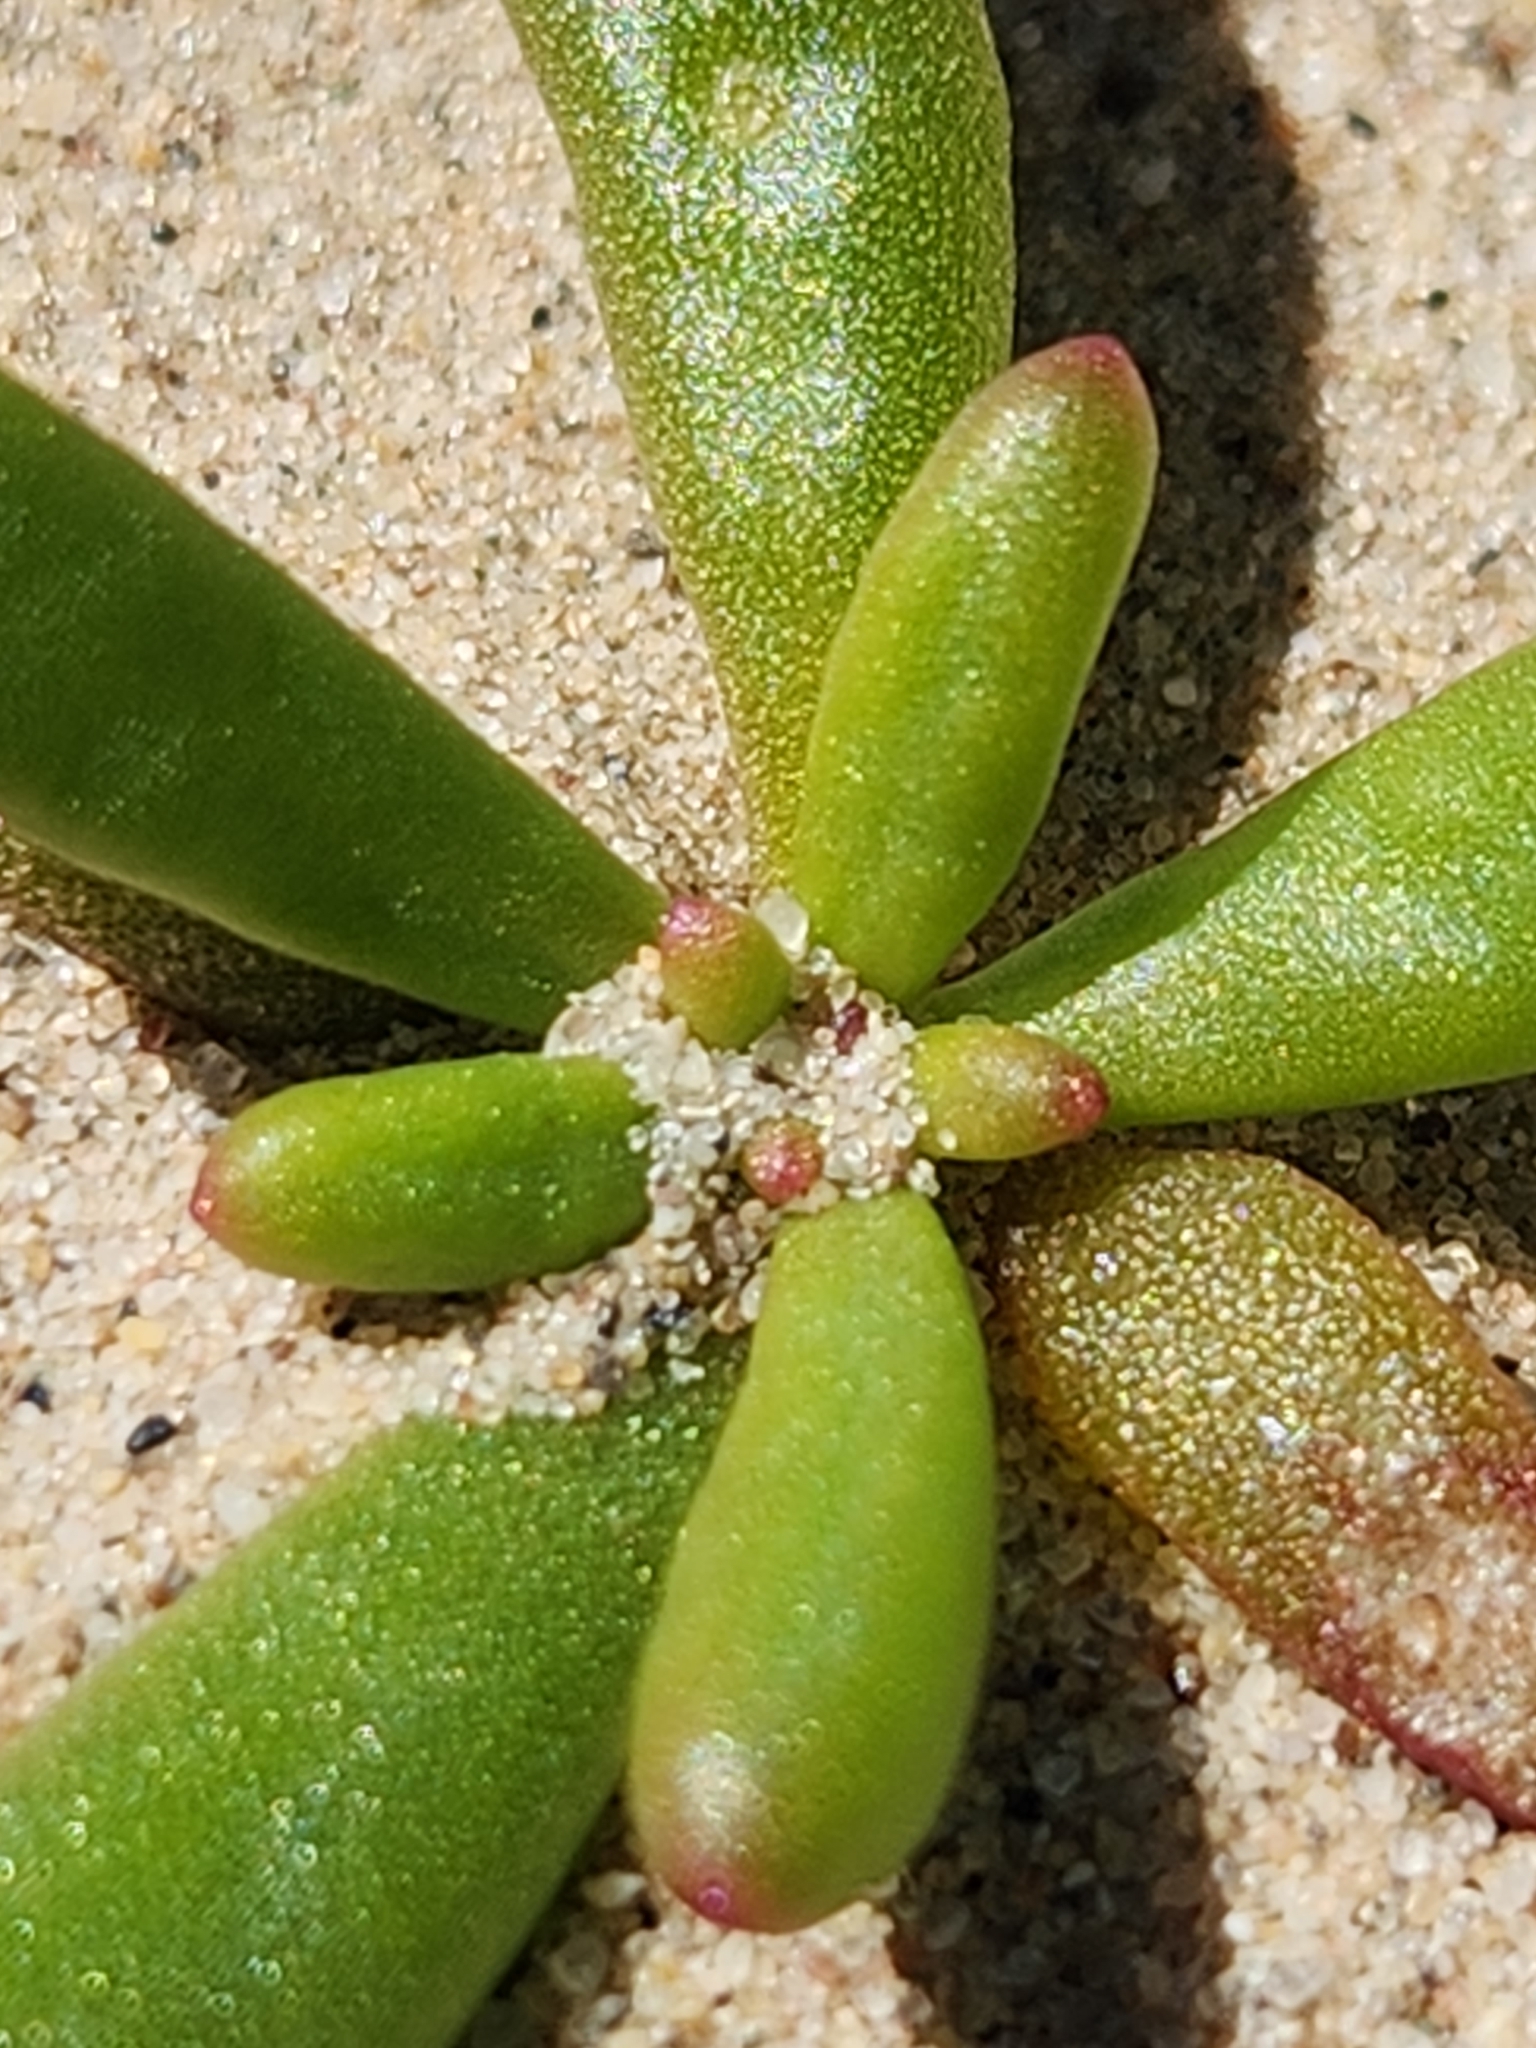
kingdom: Plantae
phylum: Tracheophyta
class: Magnoliopsida
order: Caryophyllales
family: Montiaceae
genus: Thingia
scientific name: Thingia ambigua
